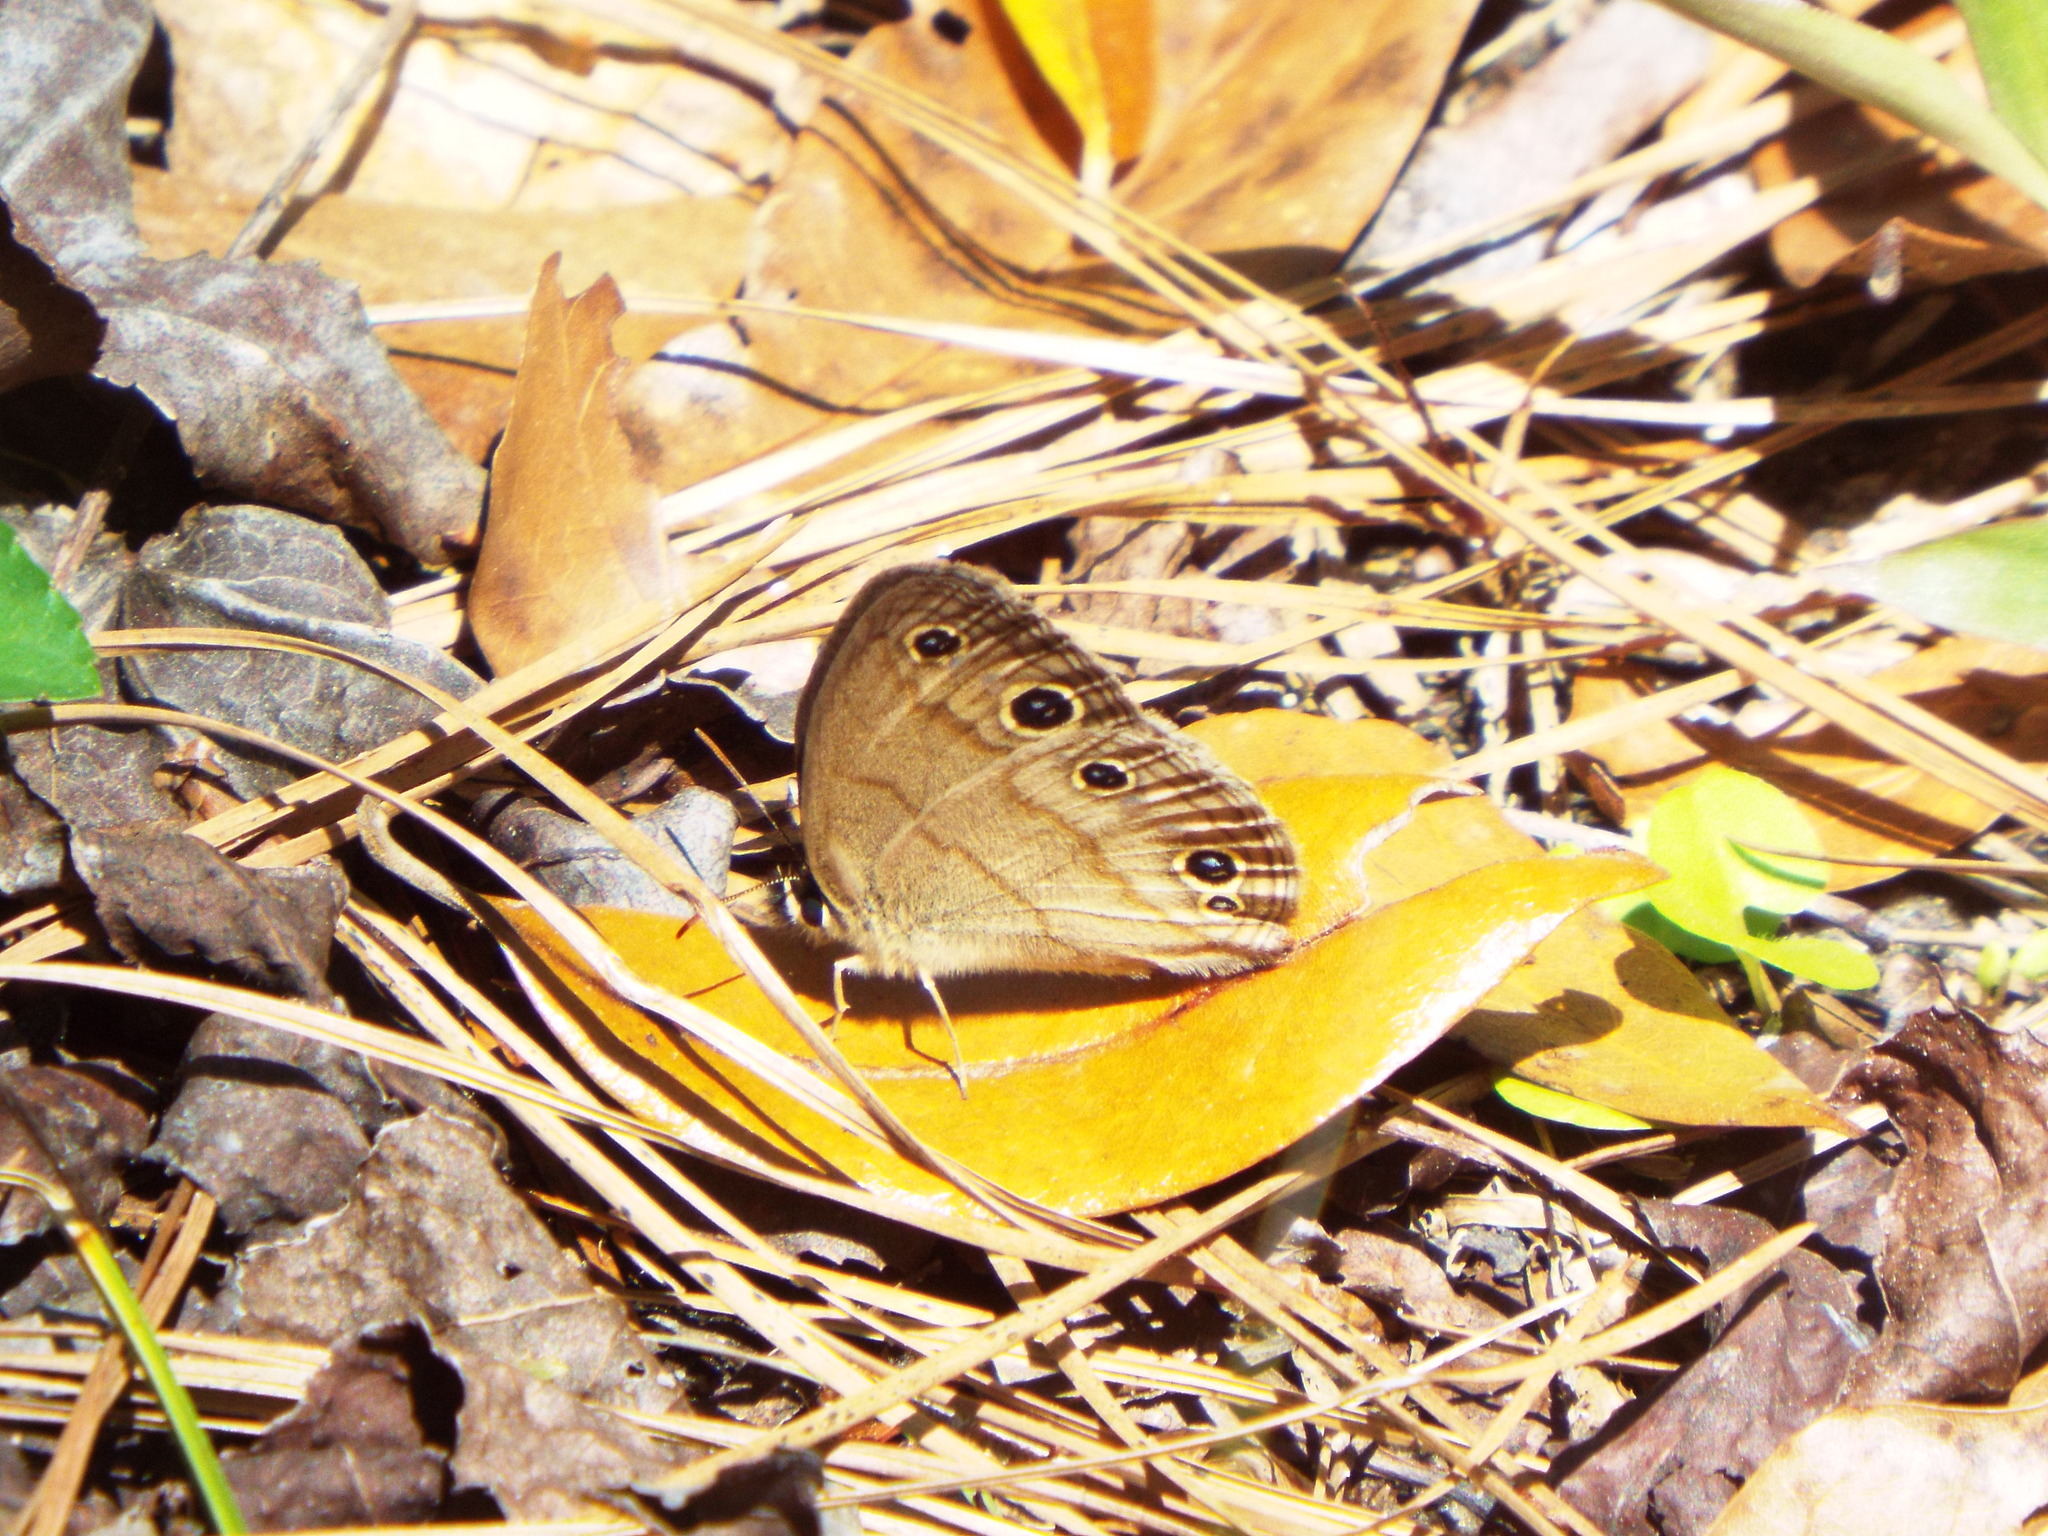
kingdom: Animalia
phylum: Arthropoda
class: Insecta
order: Lepidoptera
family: Nymphalidae
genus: Euptychia
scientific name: Euptychia cymela
